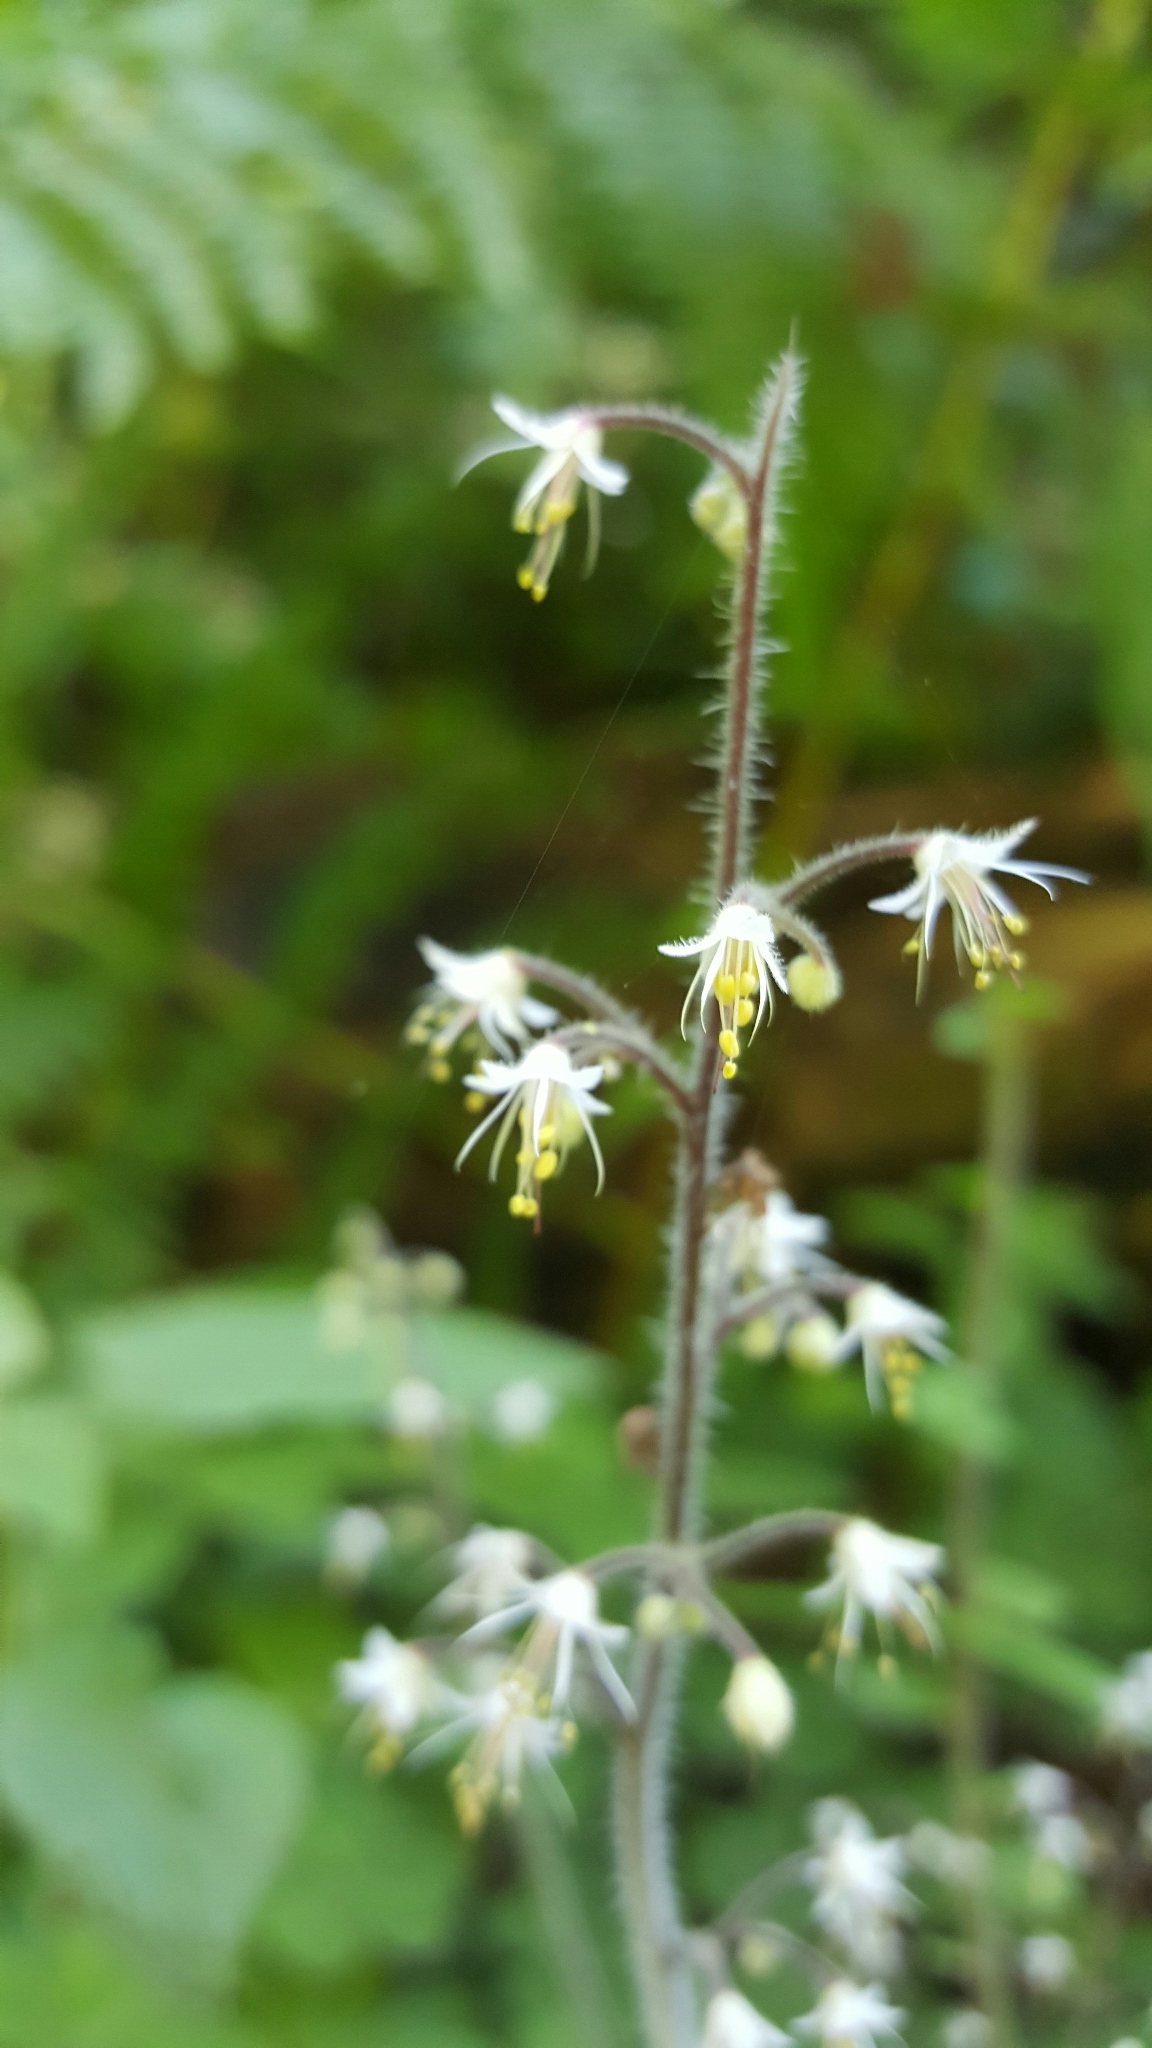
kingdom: Plantae
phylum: Tracheophyta
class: Magnoliopsida
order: Saxifragales
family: Saxifragaceae
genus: Tiarella
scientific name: Tiarella trifoliata
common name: Sugar-scoop
